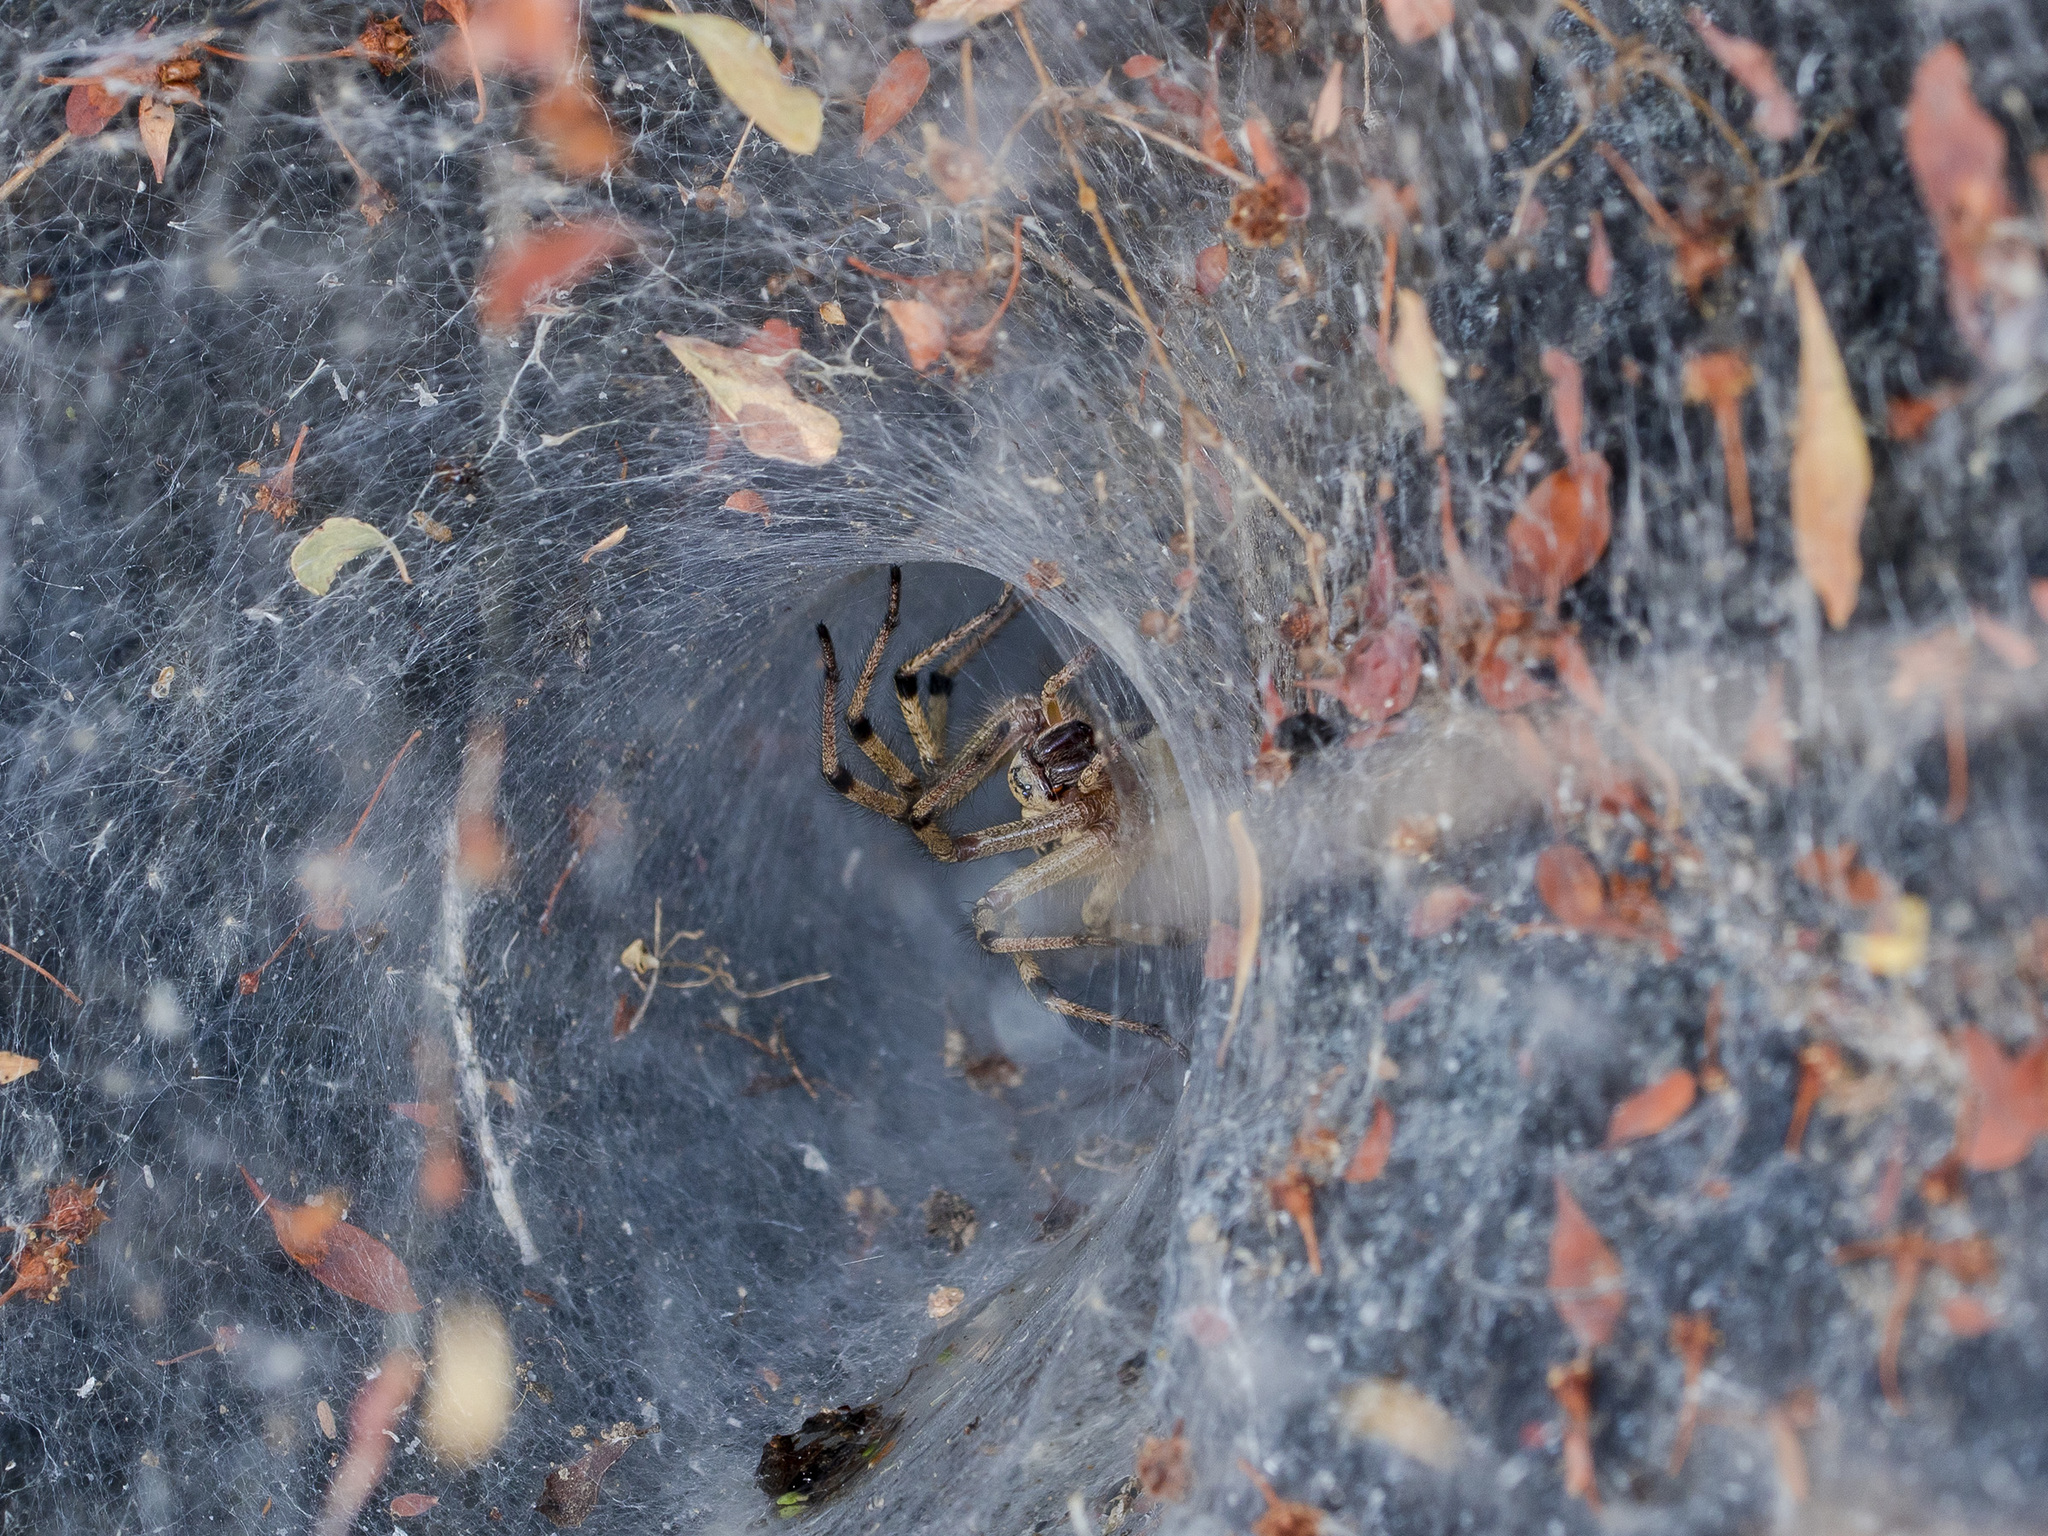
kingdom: Animalia
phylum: Arthropoda
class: Arachnida
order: Araneae
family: Agelenidae
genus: Agelena
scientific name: Agelena orientalis
